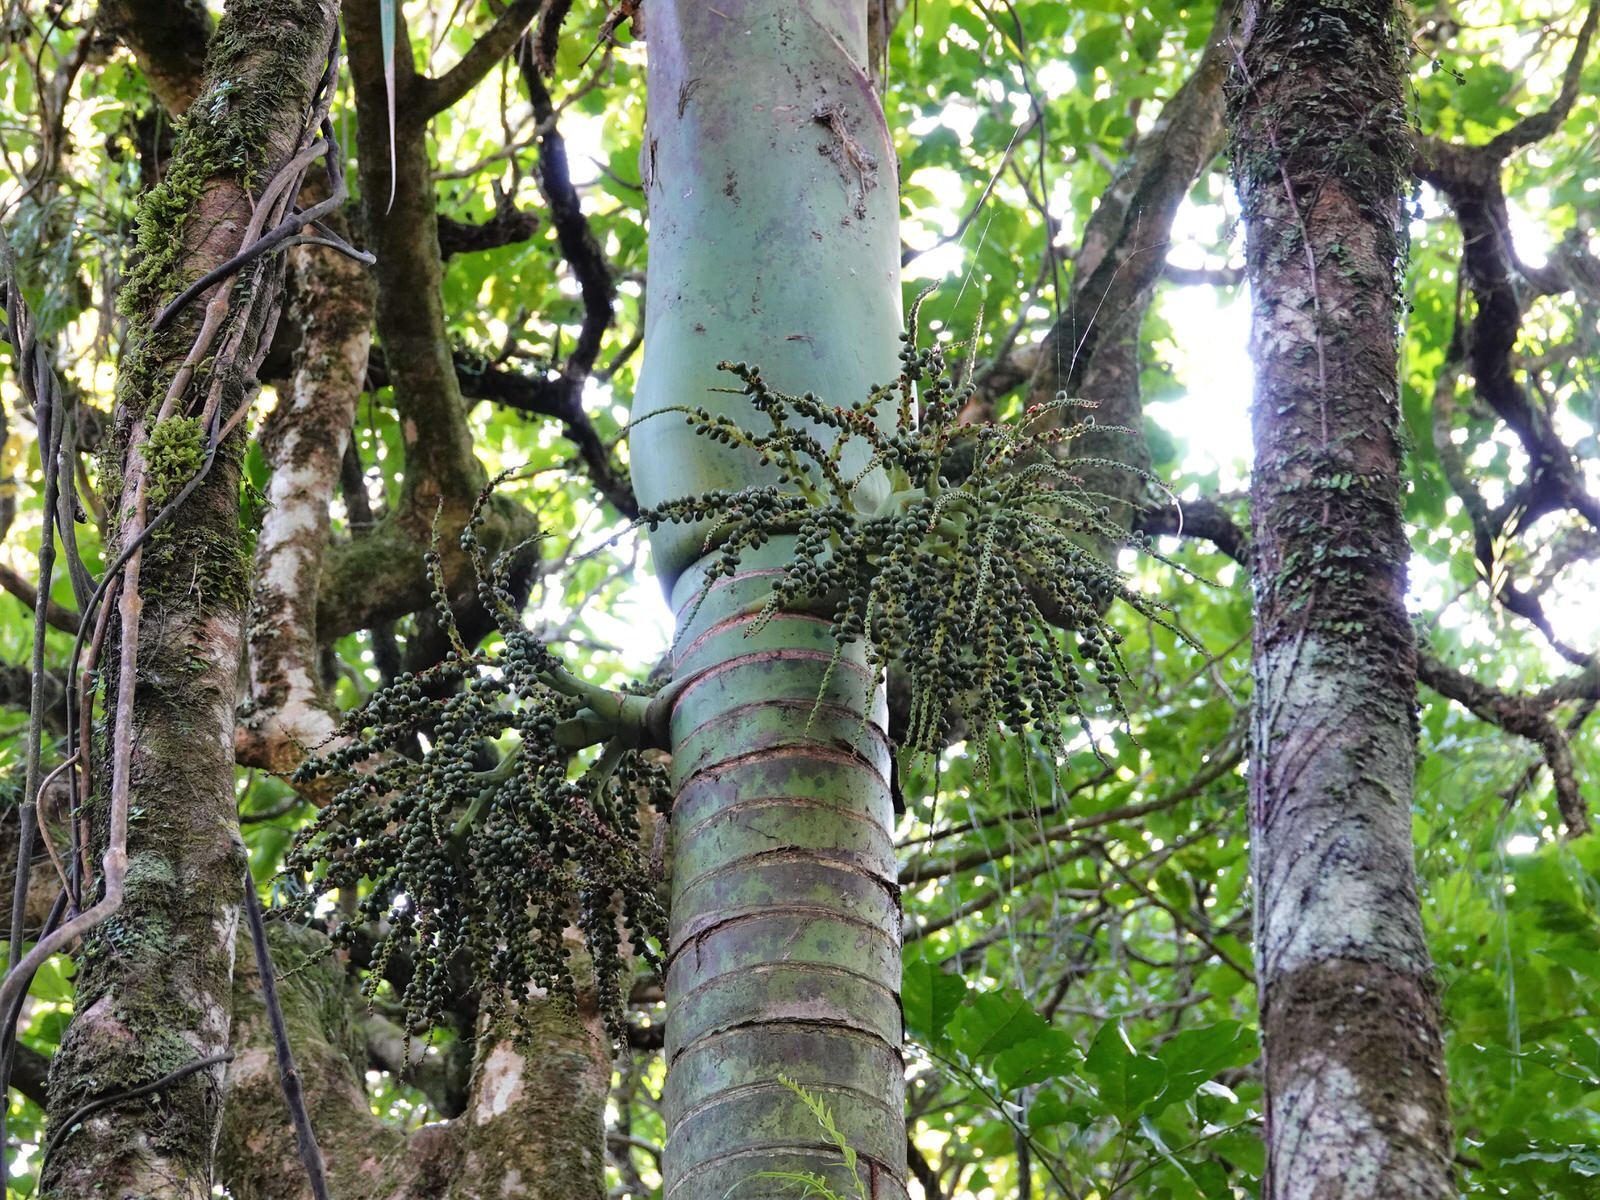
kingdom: Plantae
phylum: Tracheophyta
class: Liliopsida
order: Arecales
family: Arecaceae
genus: Rhopalostylis
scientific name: Rhopalostylis sapida
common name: Feather-duster palm
